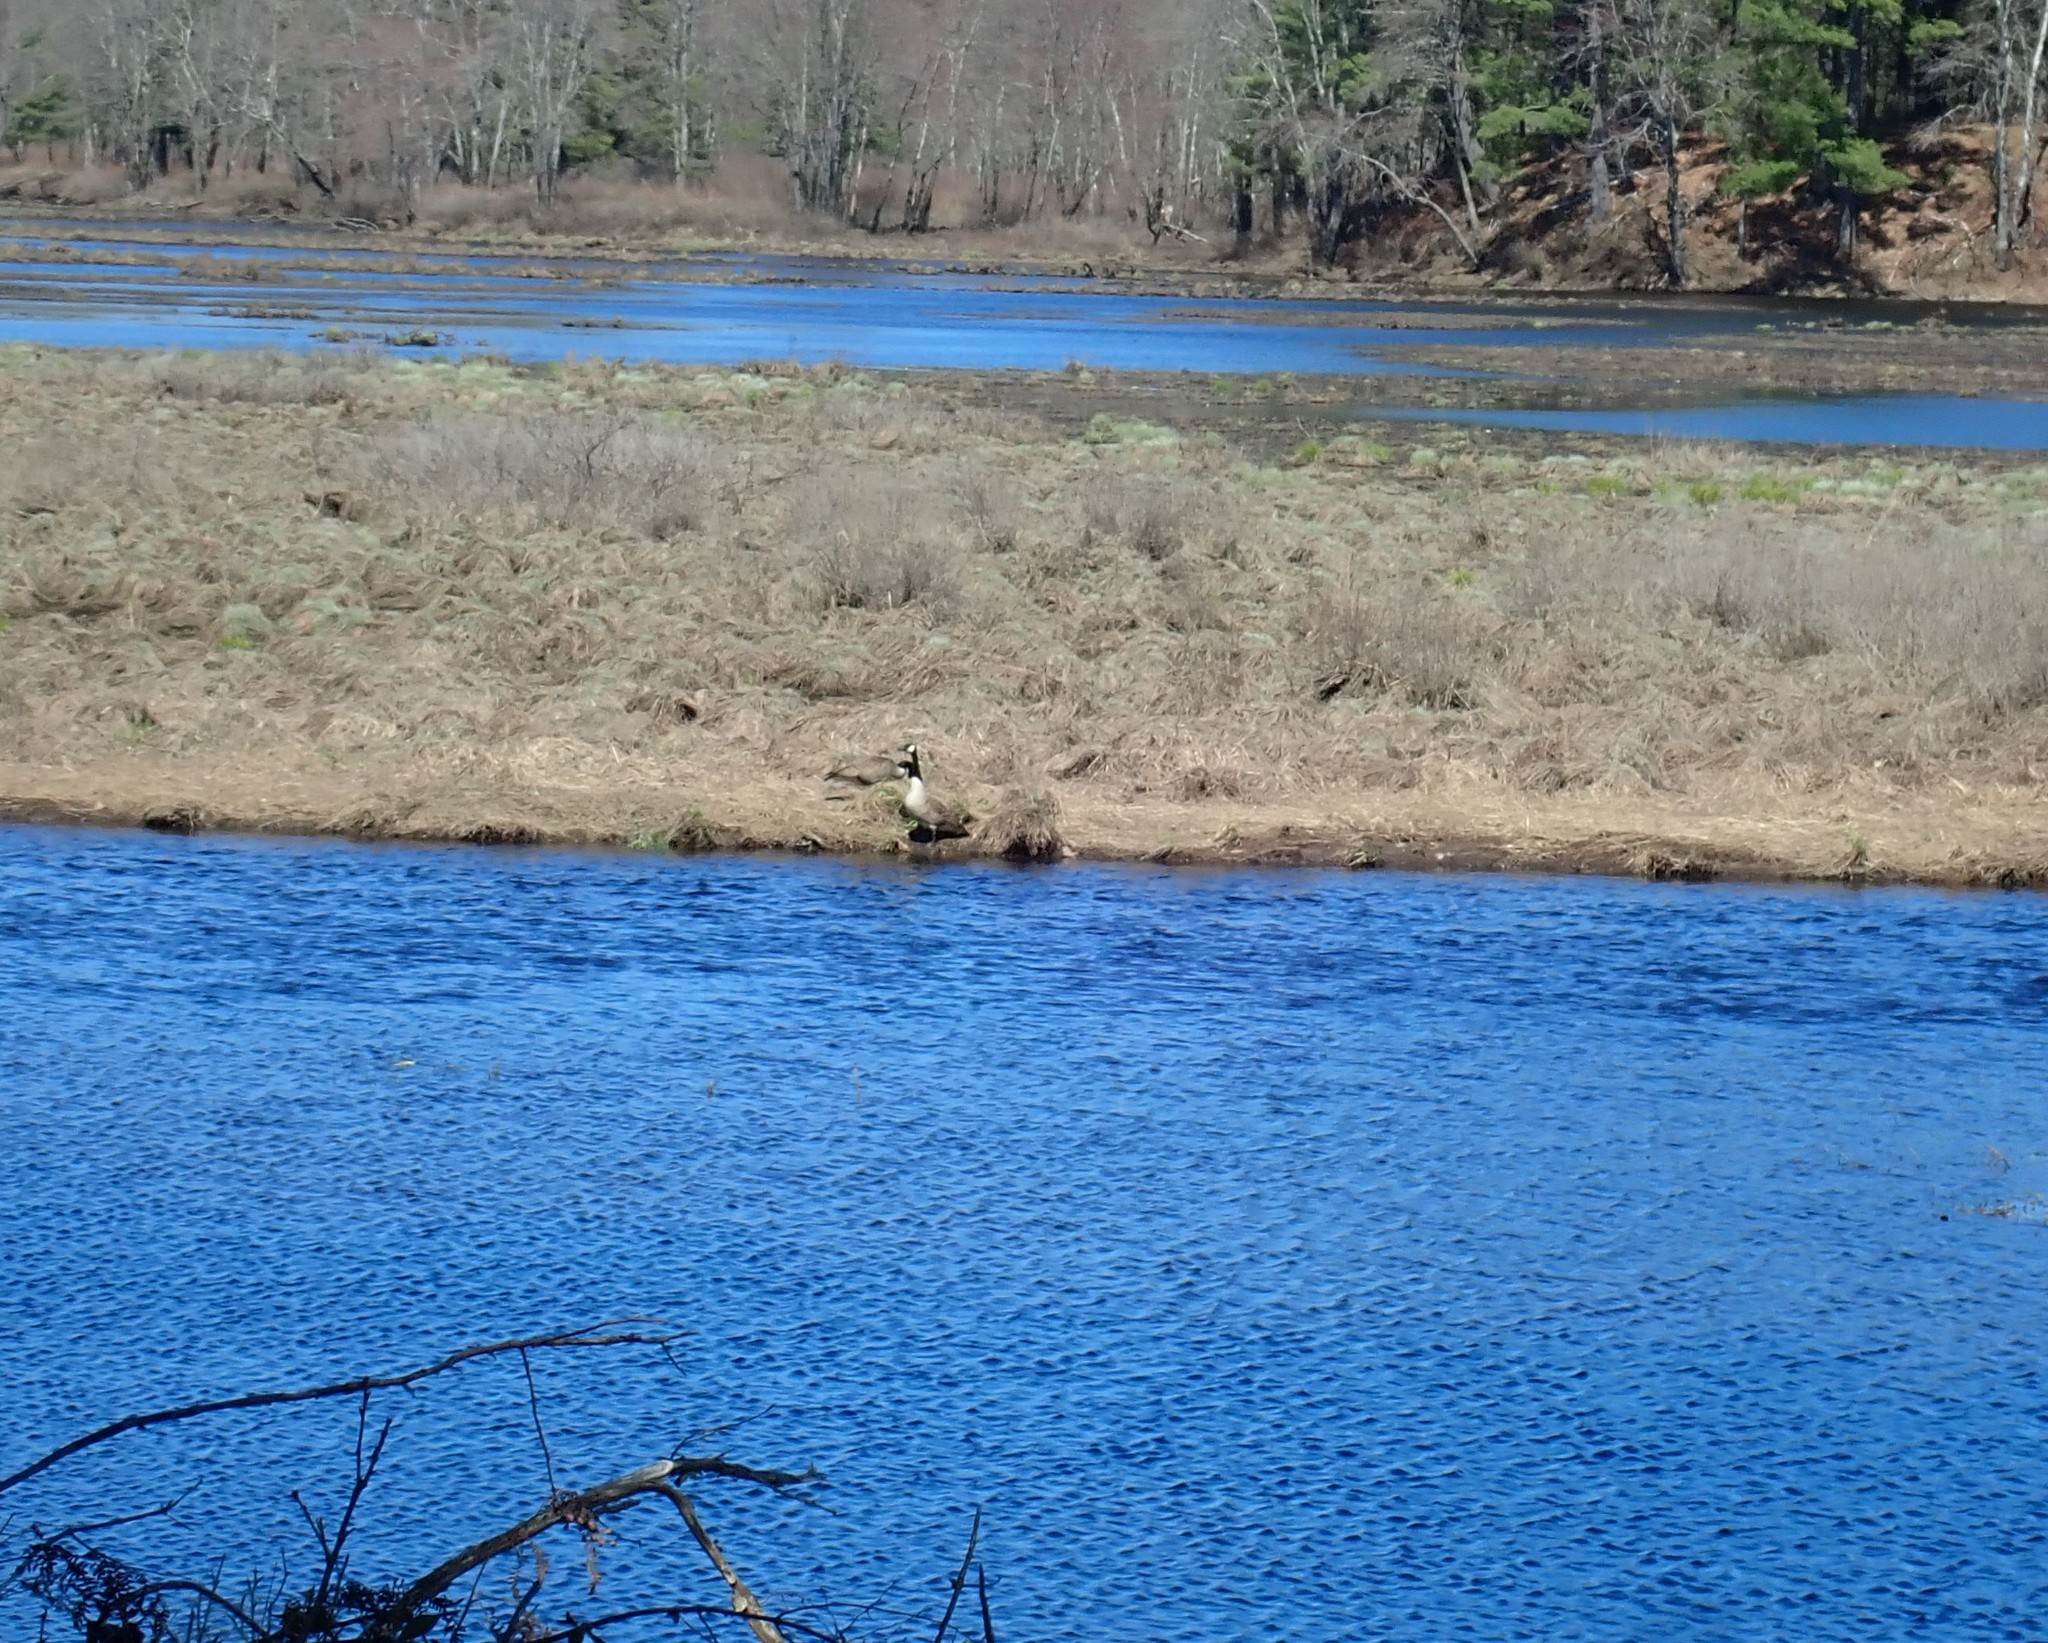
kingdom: Animalia
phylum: Chordata
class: Aves
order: Anseriformes
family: Anatidae
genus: Branta
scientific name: Branta canadensis
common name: Canada goose
